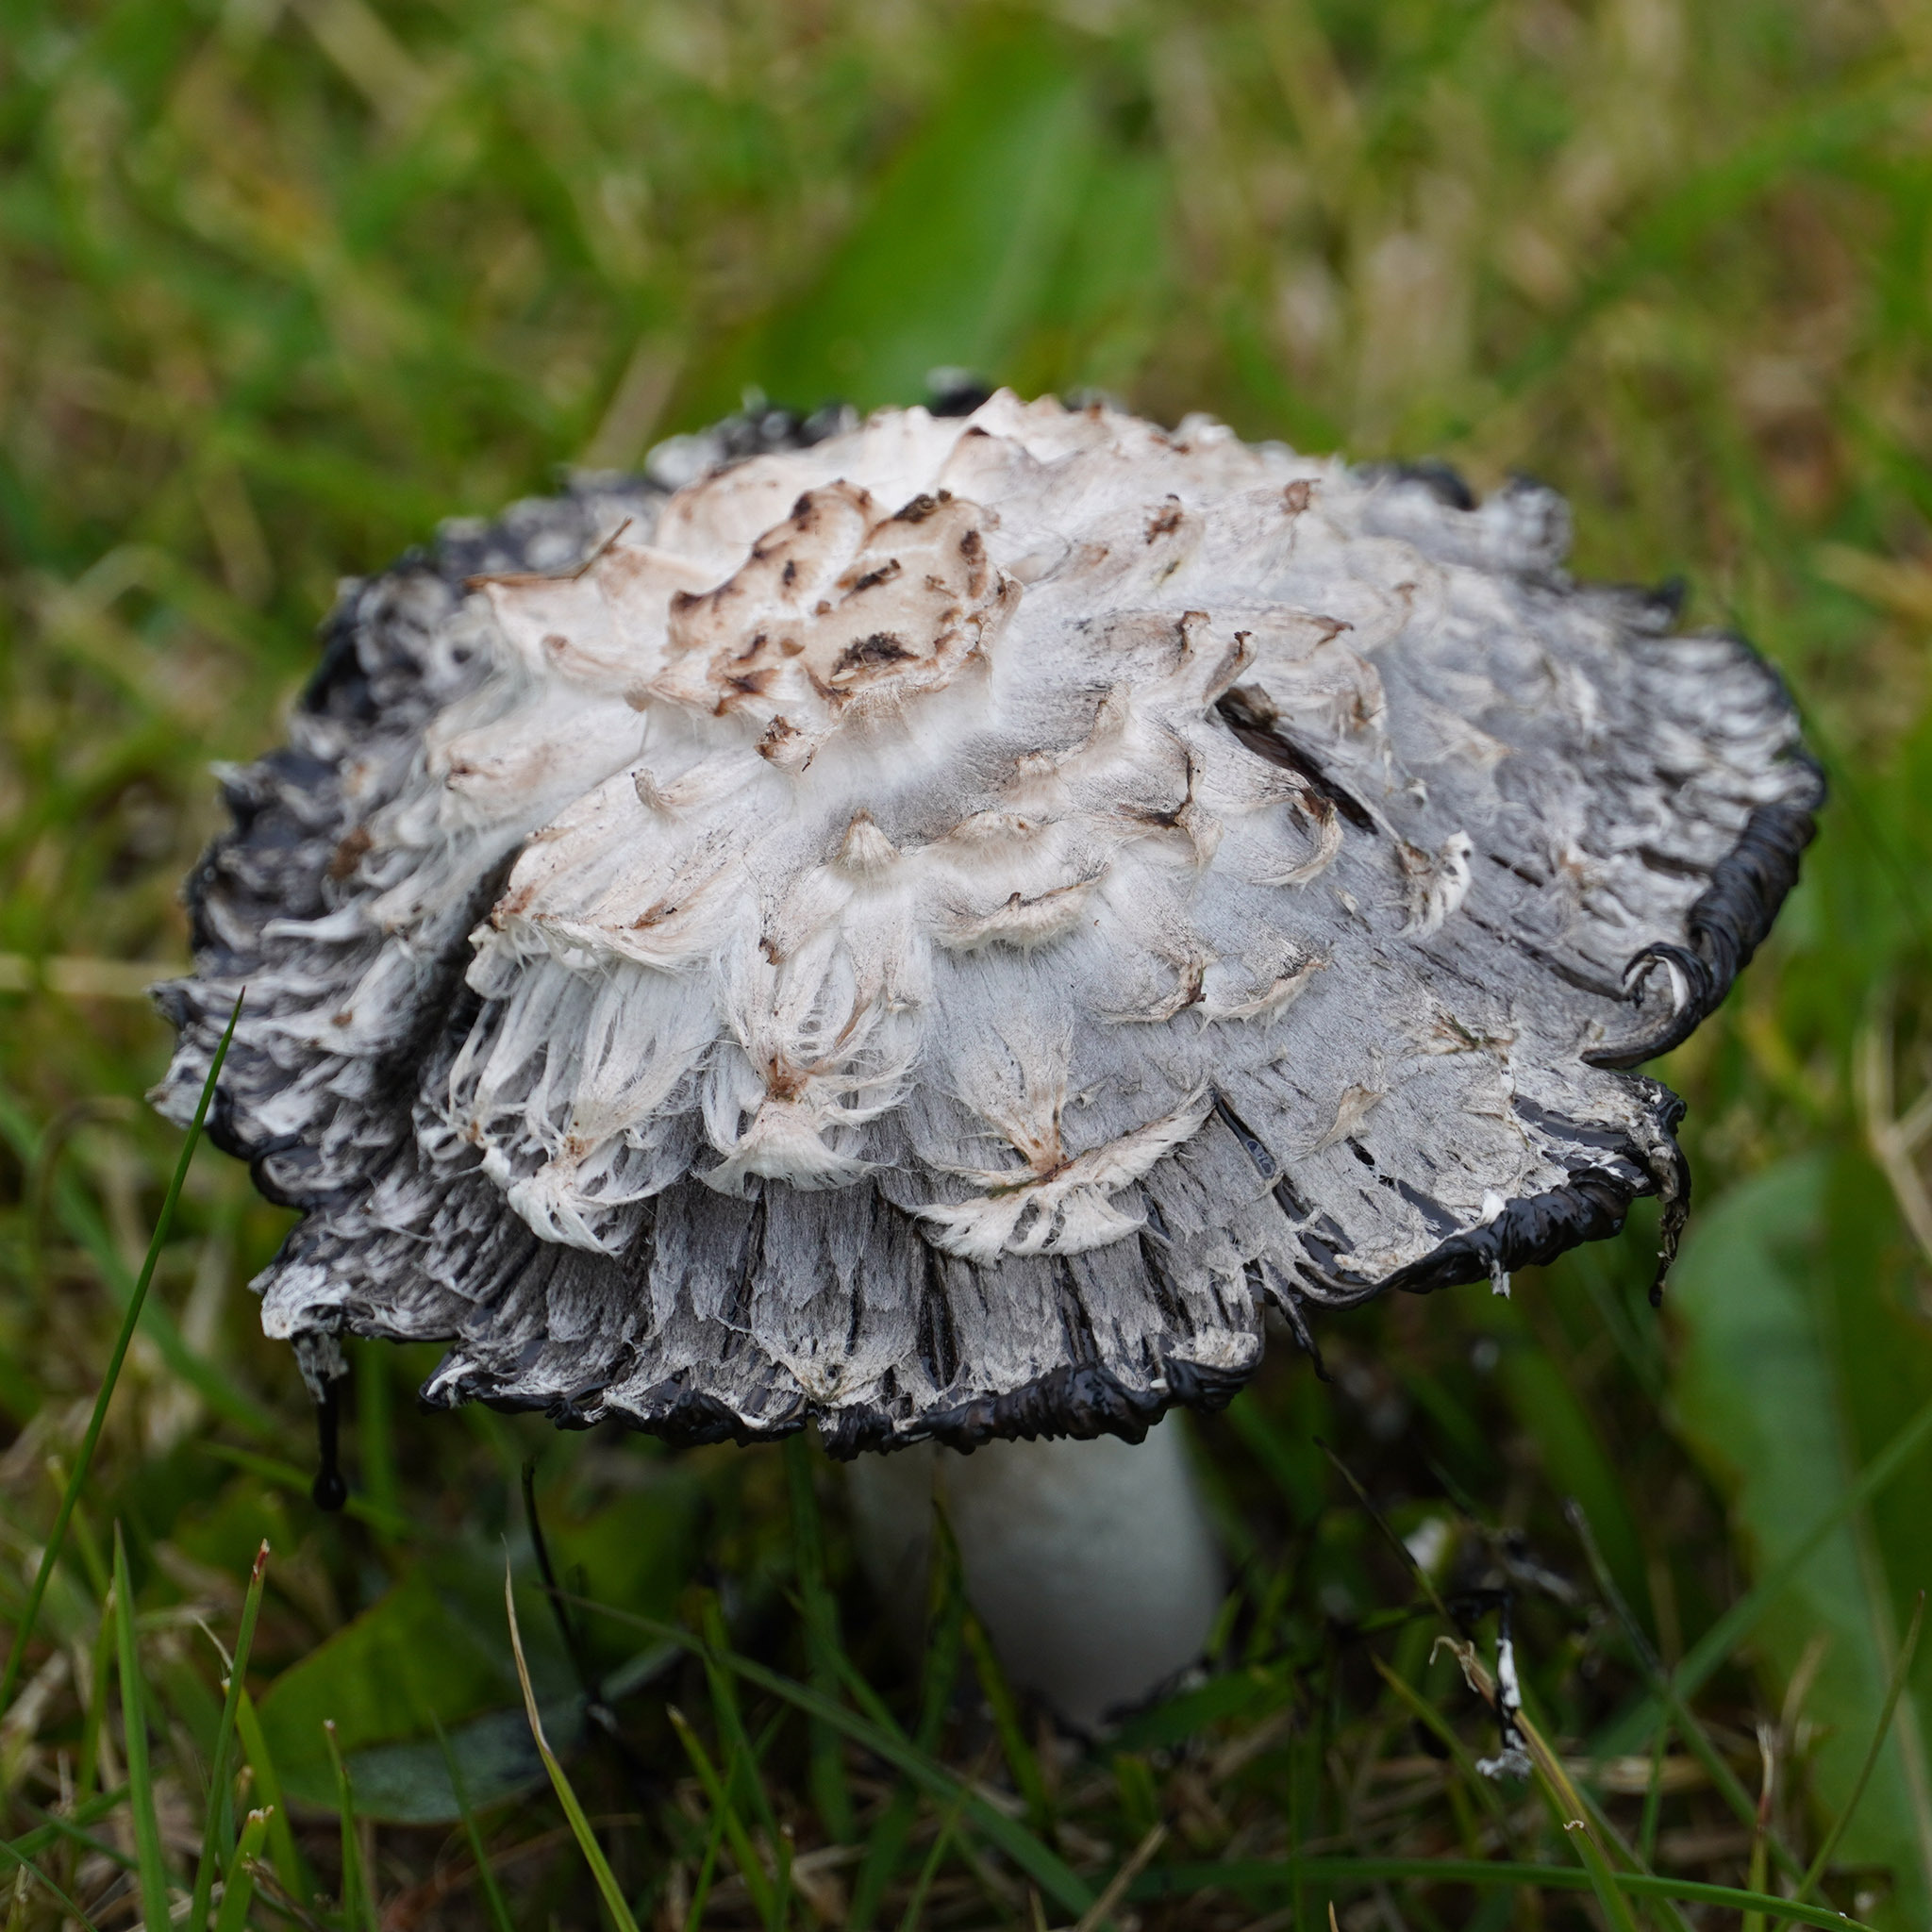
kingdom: Fungi
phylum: Basidiomycota
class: Agaricomycetes
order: Agaricales
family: Agaricaceae
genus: Coprinus
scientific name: Coprinus comatus
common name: Lawyer's wig
